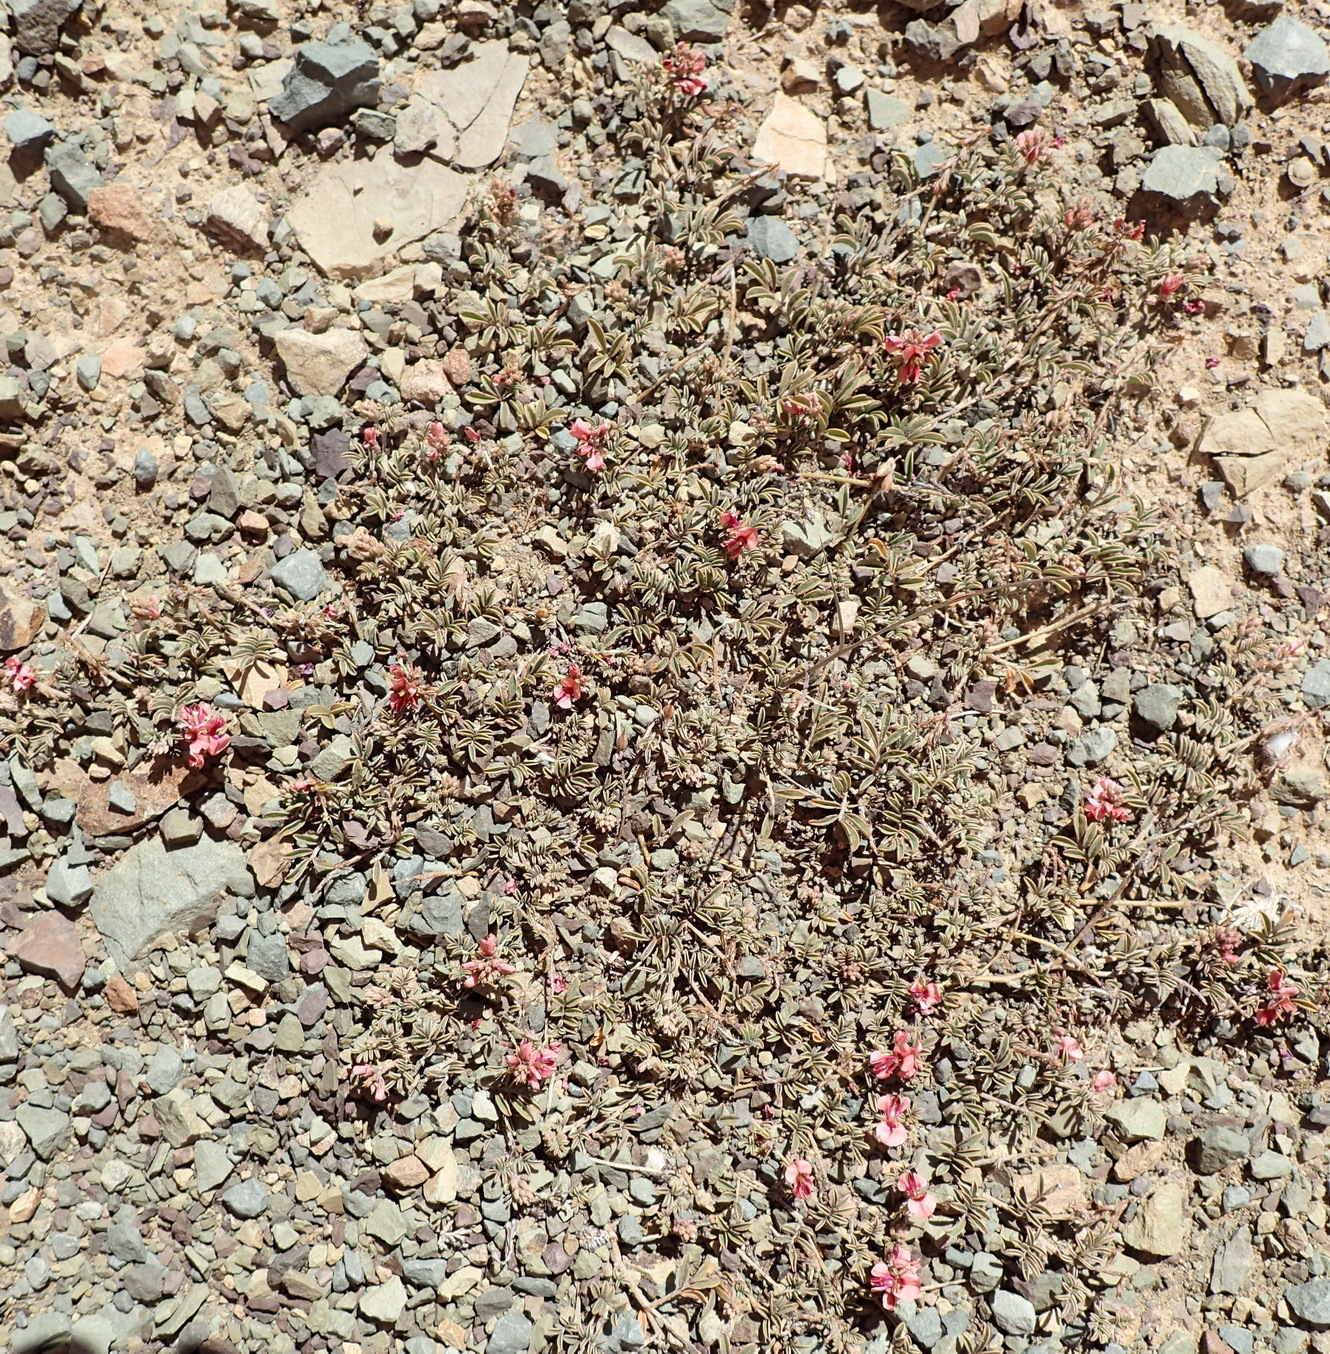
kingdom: Plantae
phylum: Tracheophyta
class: Magnoliopsida
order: Fabales
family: Fabaceae
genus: Indigofera
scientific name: Indigofera alternans
